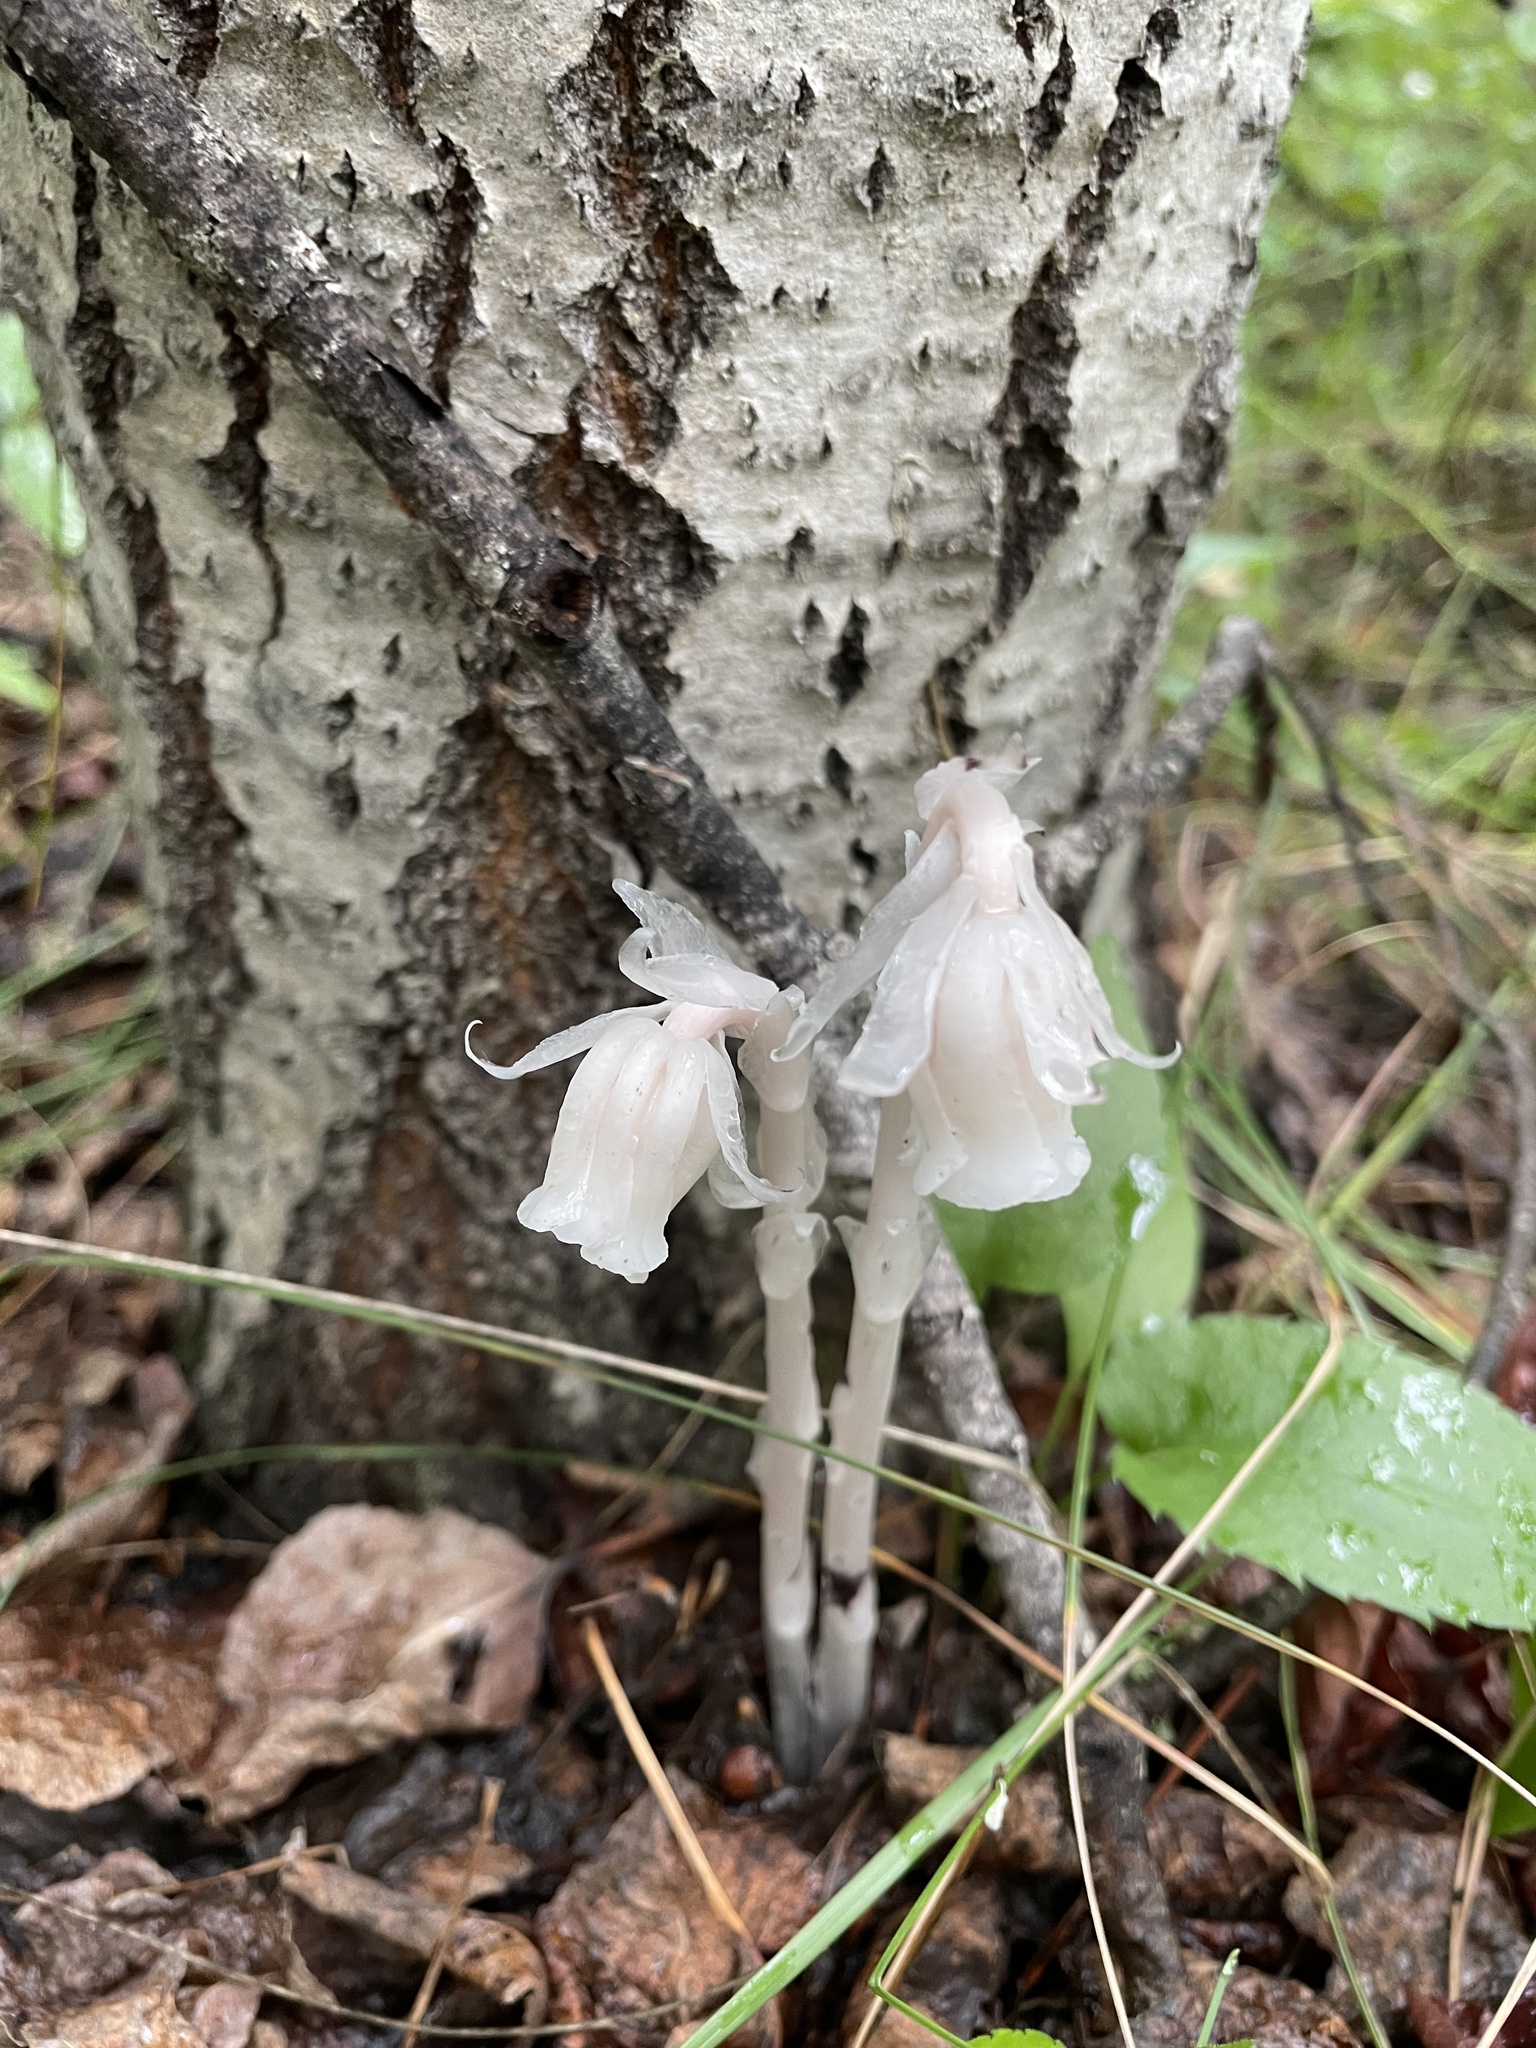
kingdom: Plantae
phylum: Tracheophyta
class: Magnoliopsida
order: Ericales
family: Ericaceae
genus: Monotropa
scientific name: Monotropa uniflora
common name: Convulsion root
